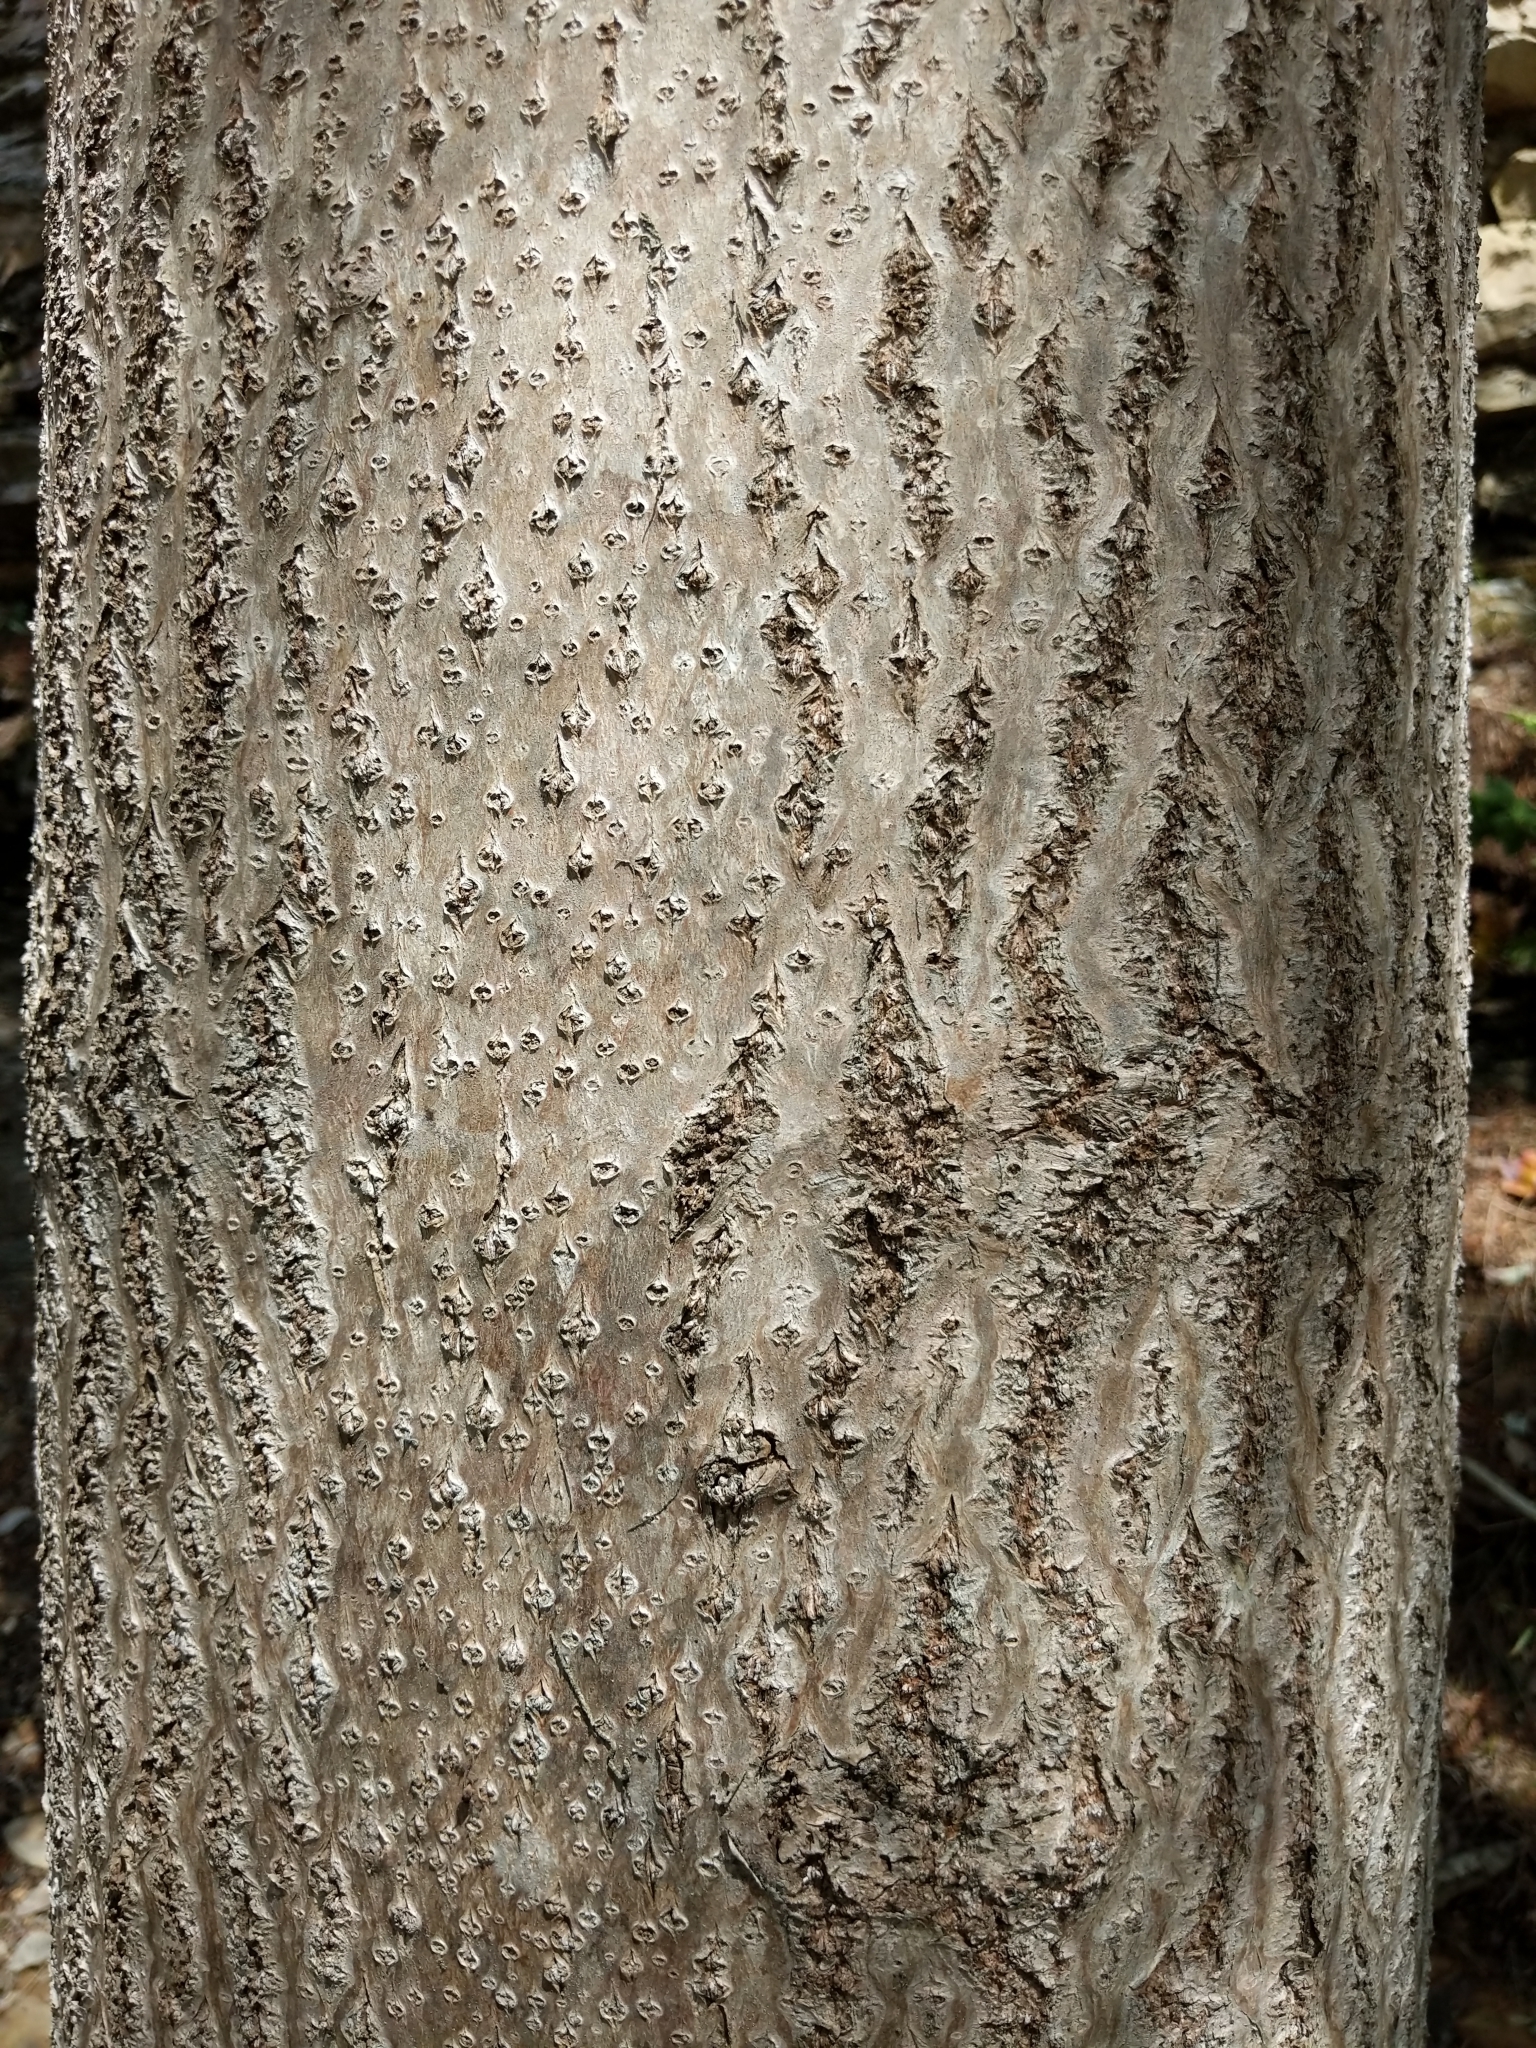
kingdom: Plantae
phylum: Tracheophyta
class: Magnoliopsida
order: Lamiales
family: Paulowniaceae
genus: Paulownia
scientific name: Paulownia tomentosa
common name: Foxglove-tree
